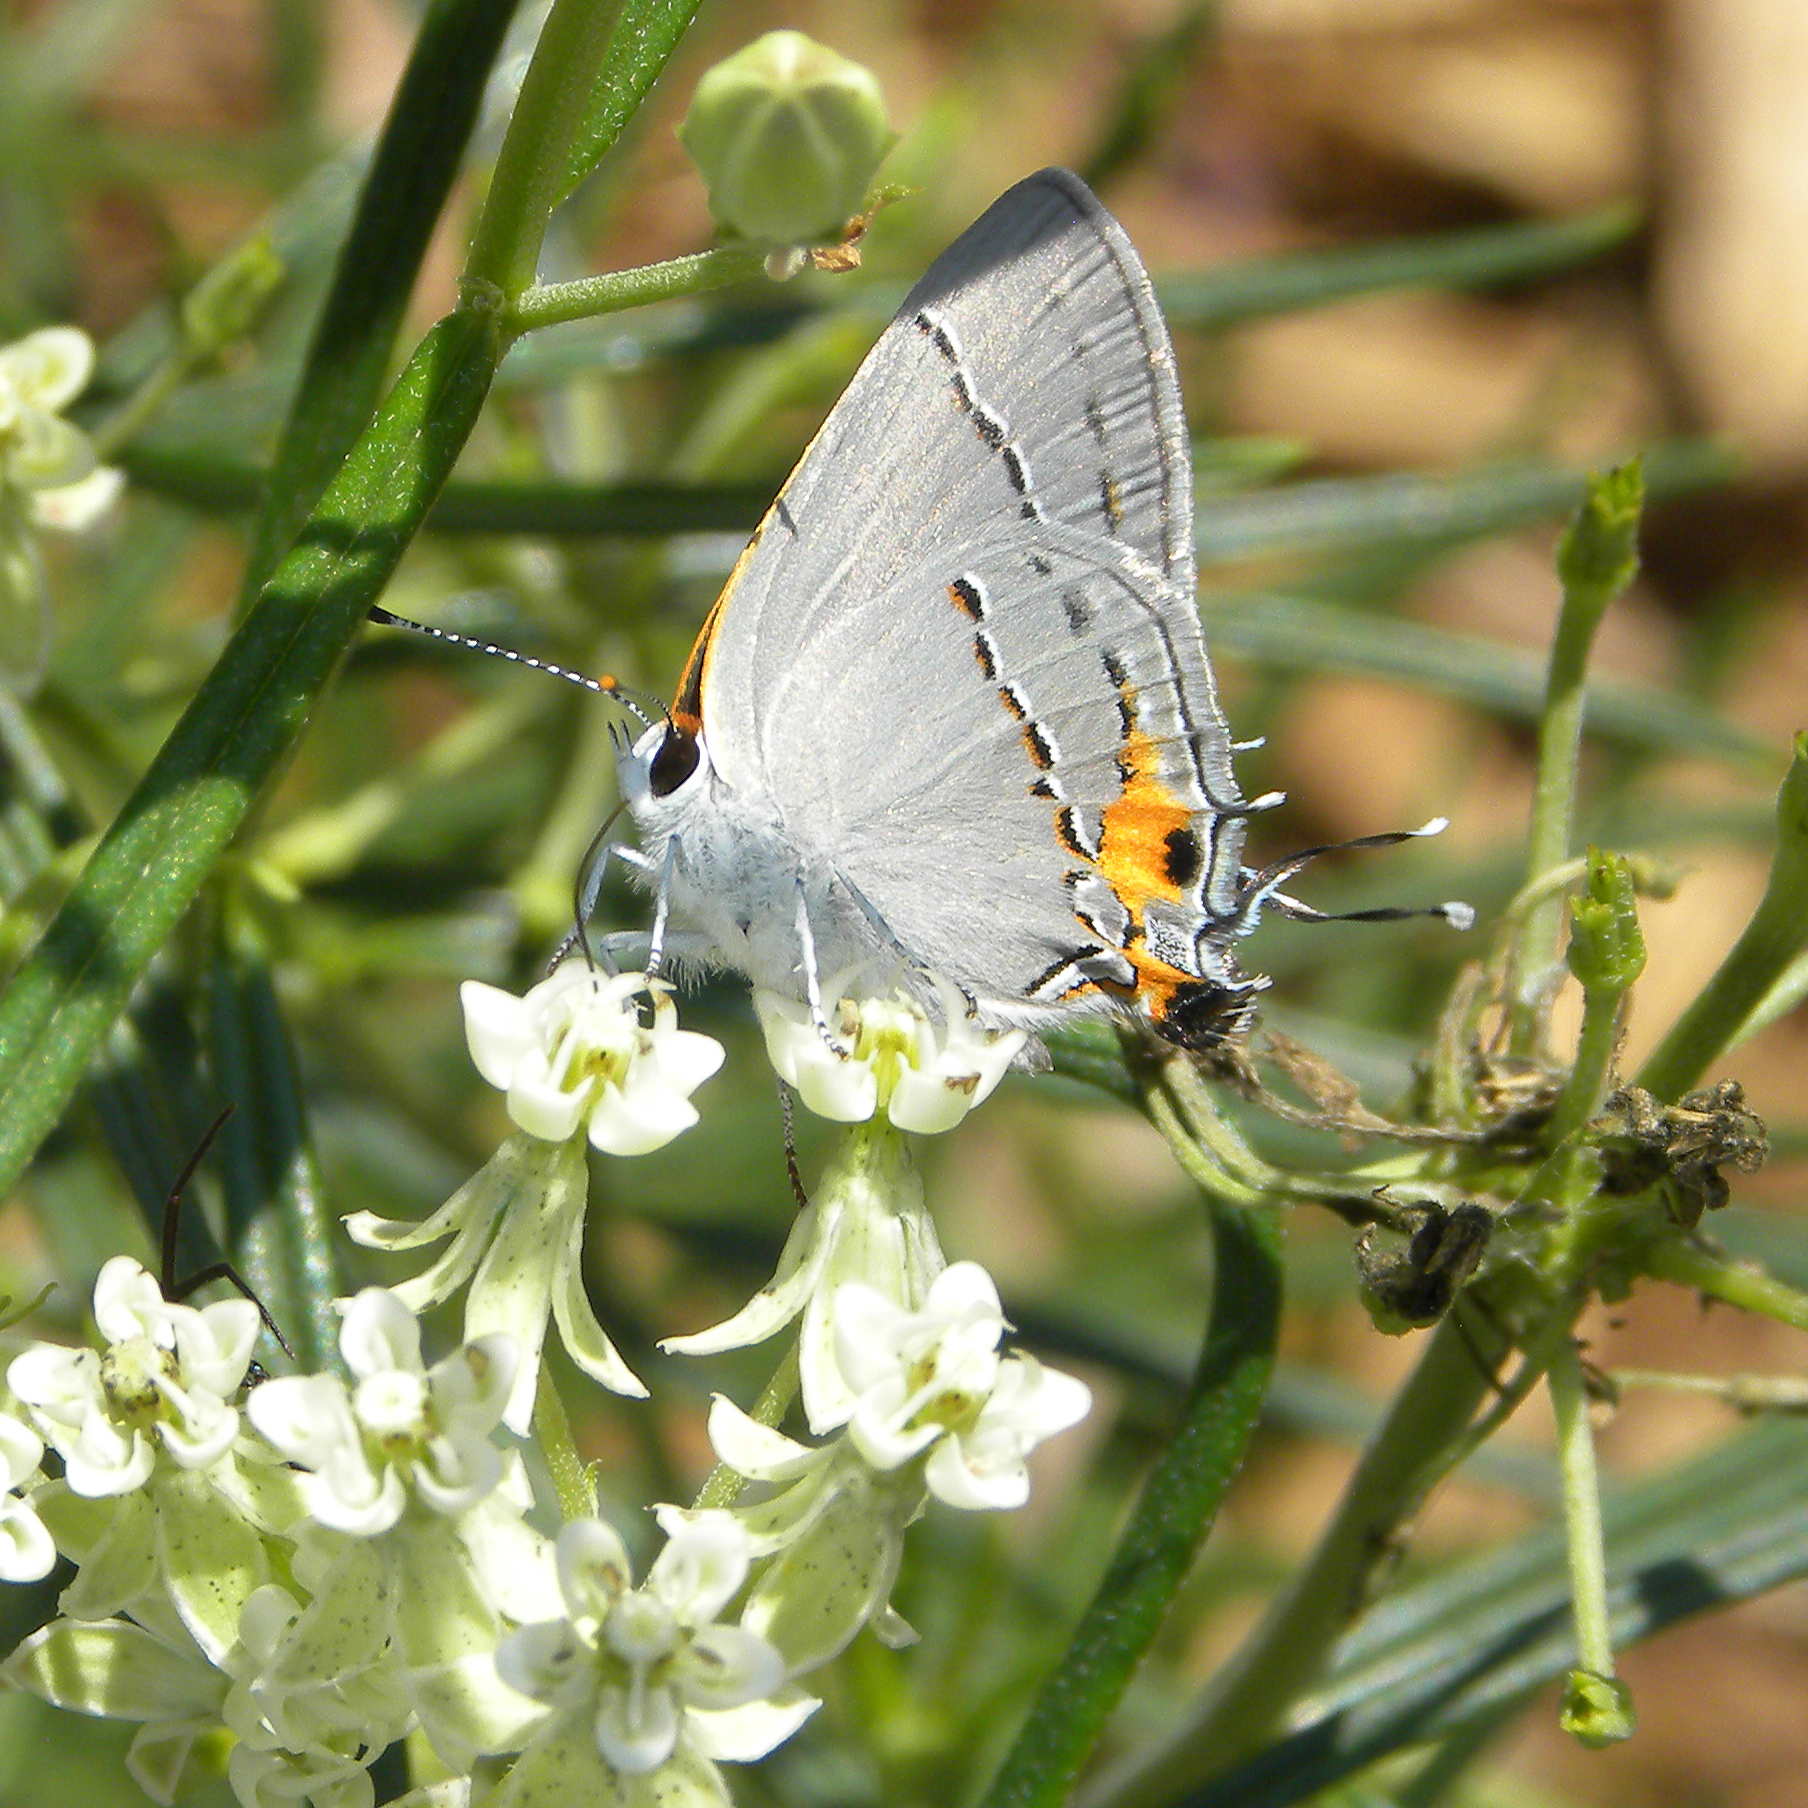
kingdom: Animalia
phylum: Arthropoda
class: Insecta
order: Lepidoptera
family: Lycaenidae
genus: Strymon
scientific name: Strymon melinus
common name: Gray hairstreak
